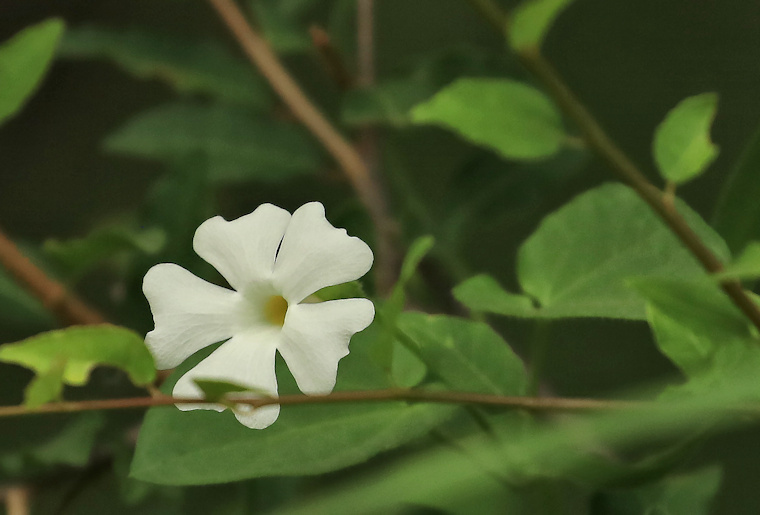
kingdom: Plantae
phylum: Tracheophyta
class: Magnoliopsida
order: Lamiales
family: Acanthaceae
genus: Thunbergia
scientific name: Thunbergia neglecta
